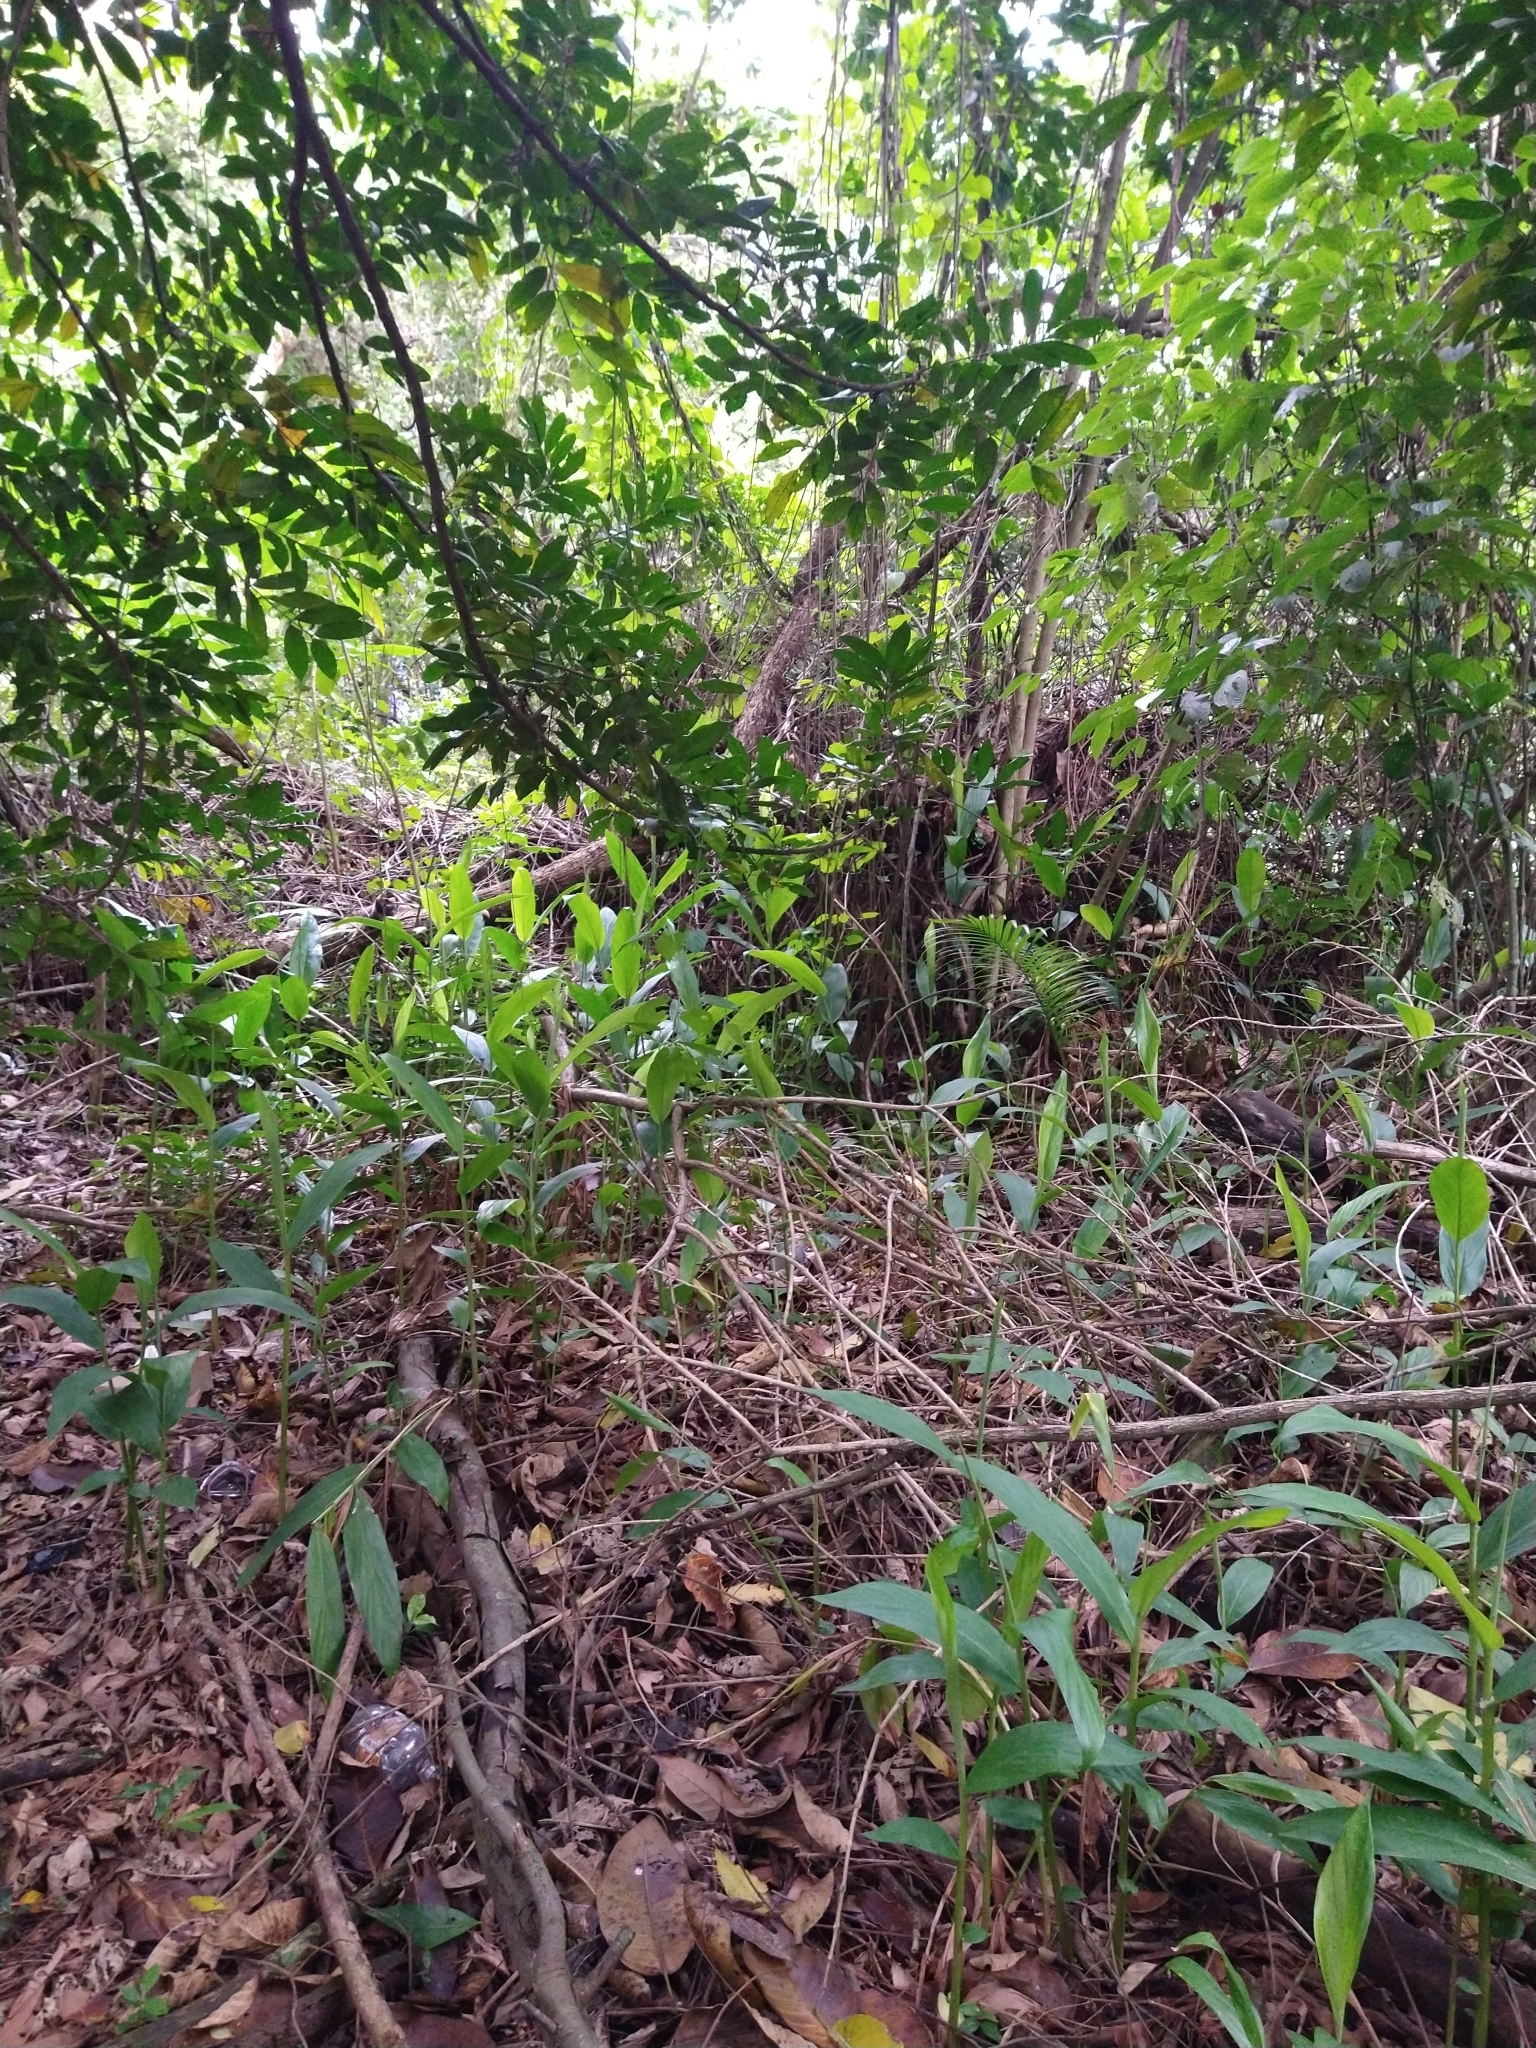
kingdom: Plantae
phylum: Tracheophyta
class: Liliopsida
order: Zingiberales
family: Zingiberaceae
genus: Hedychium
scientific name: Hedychium coronarium
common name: White garland-lily
